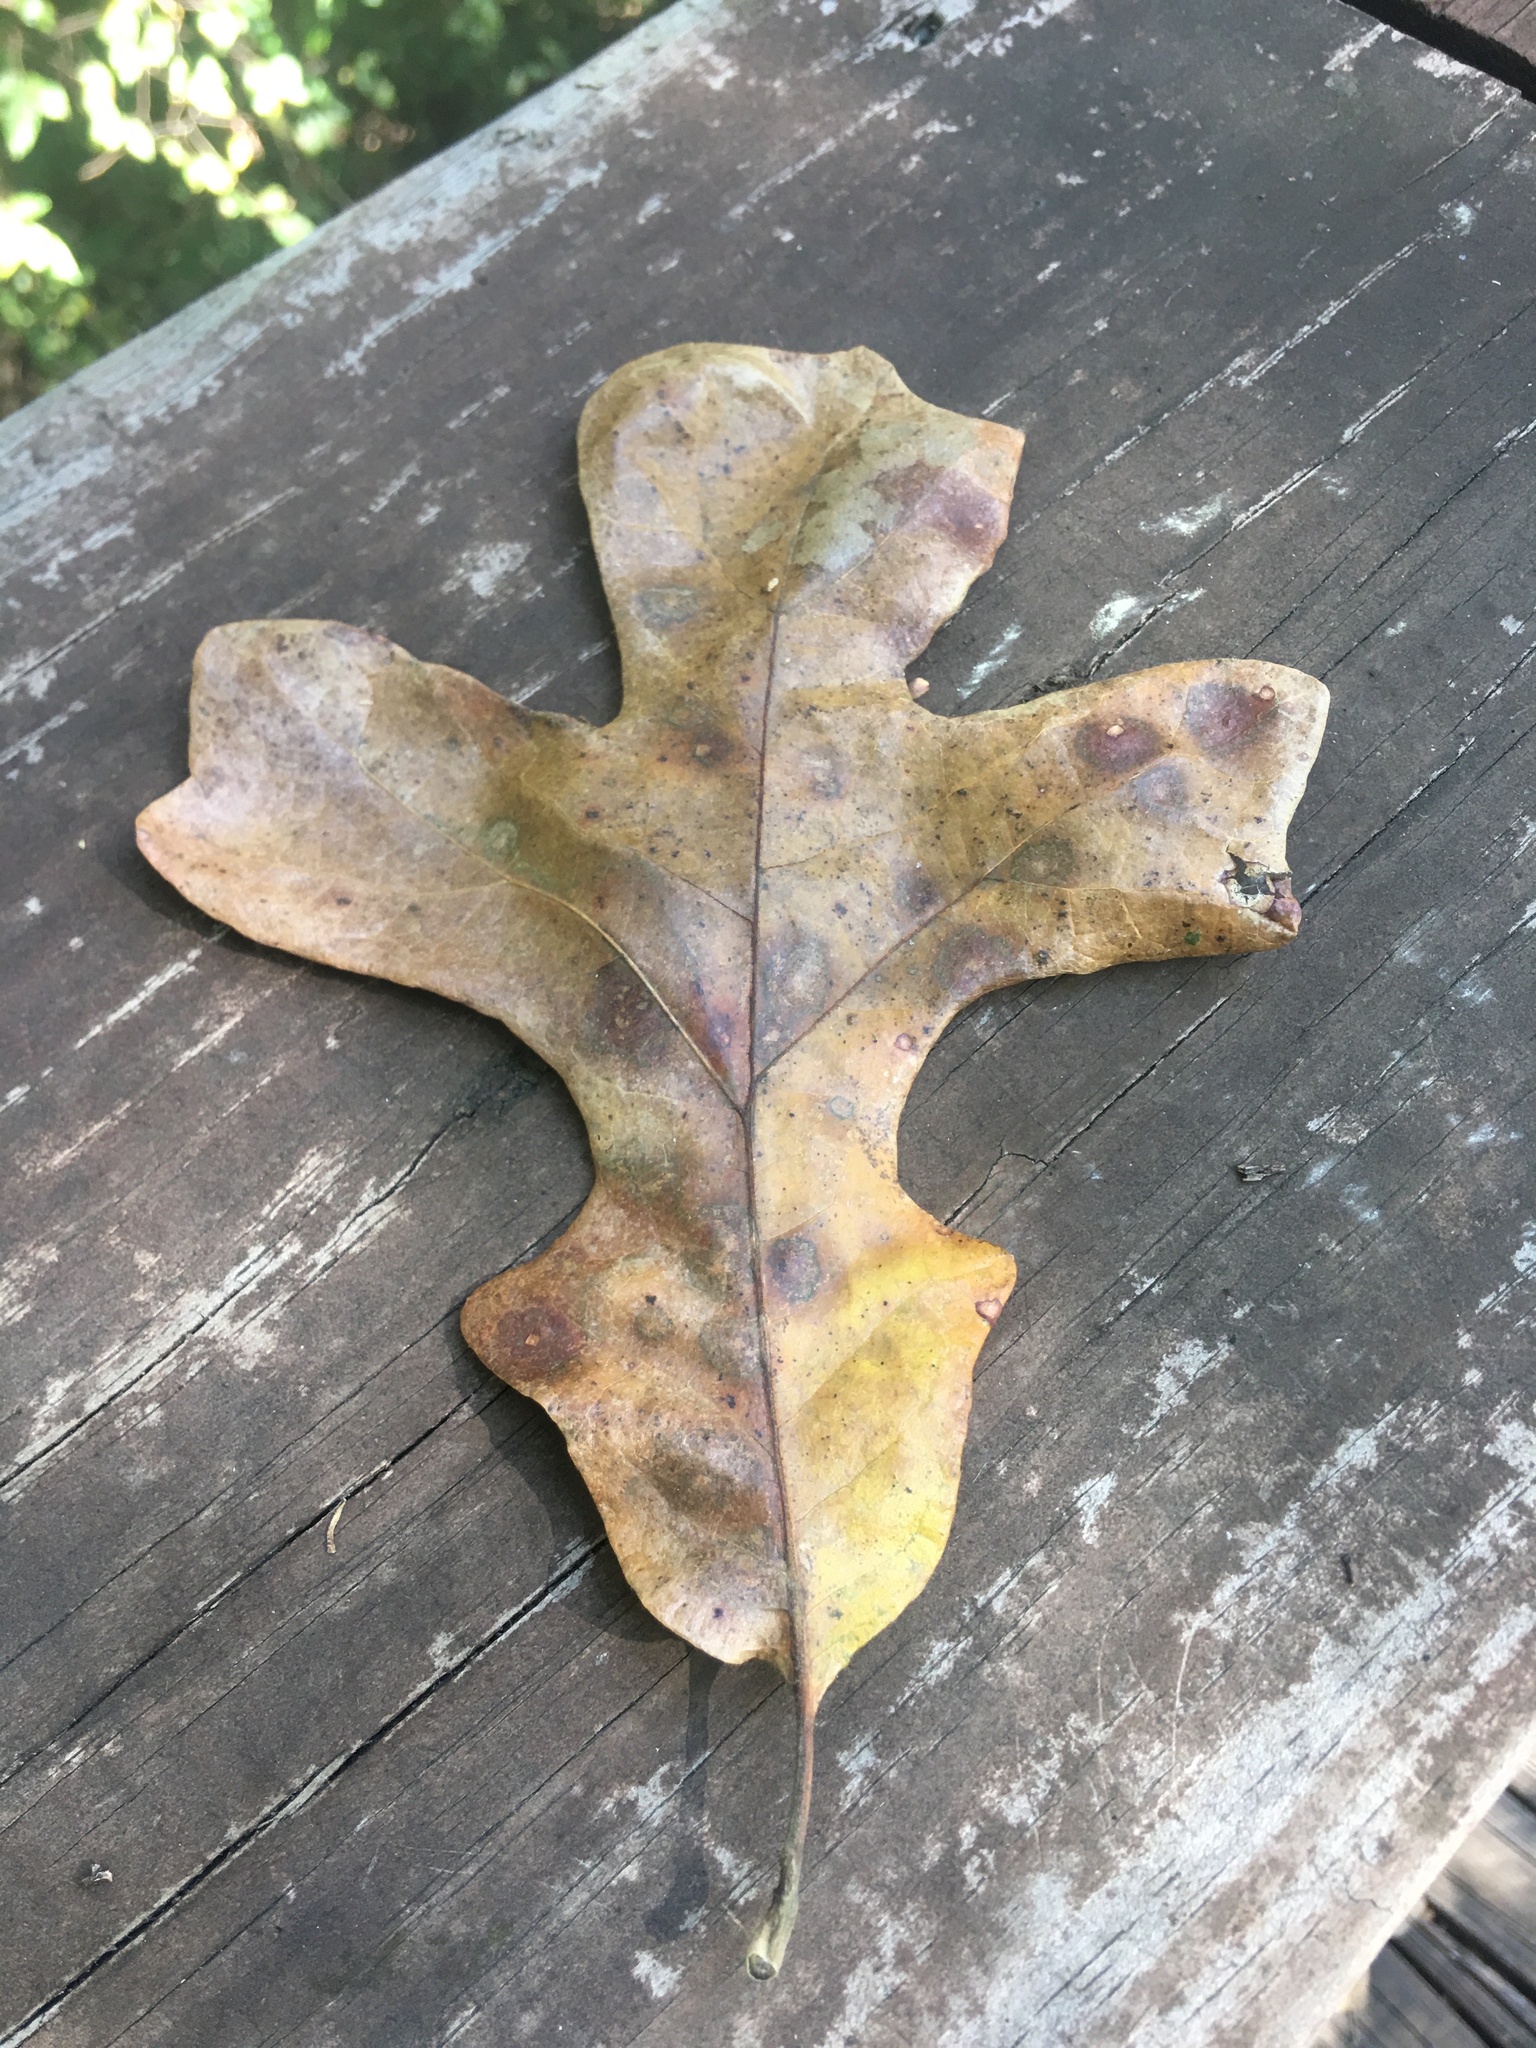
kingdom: Plantae
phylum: Tracheophyta
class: Magnoliopsida
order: Fagales
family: Fagaceae
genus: Quercus
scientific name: Quercus stellata
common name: Post oak
